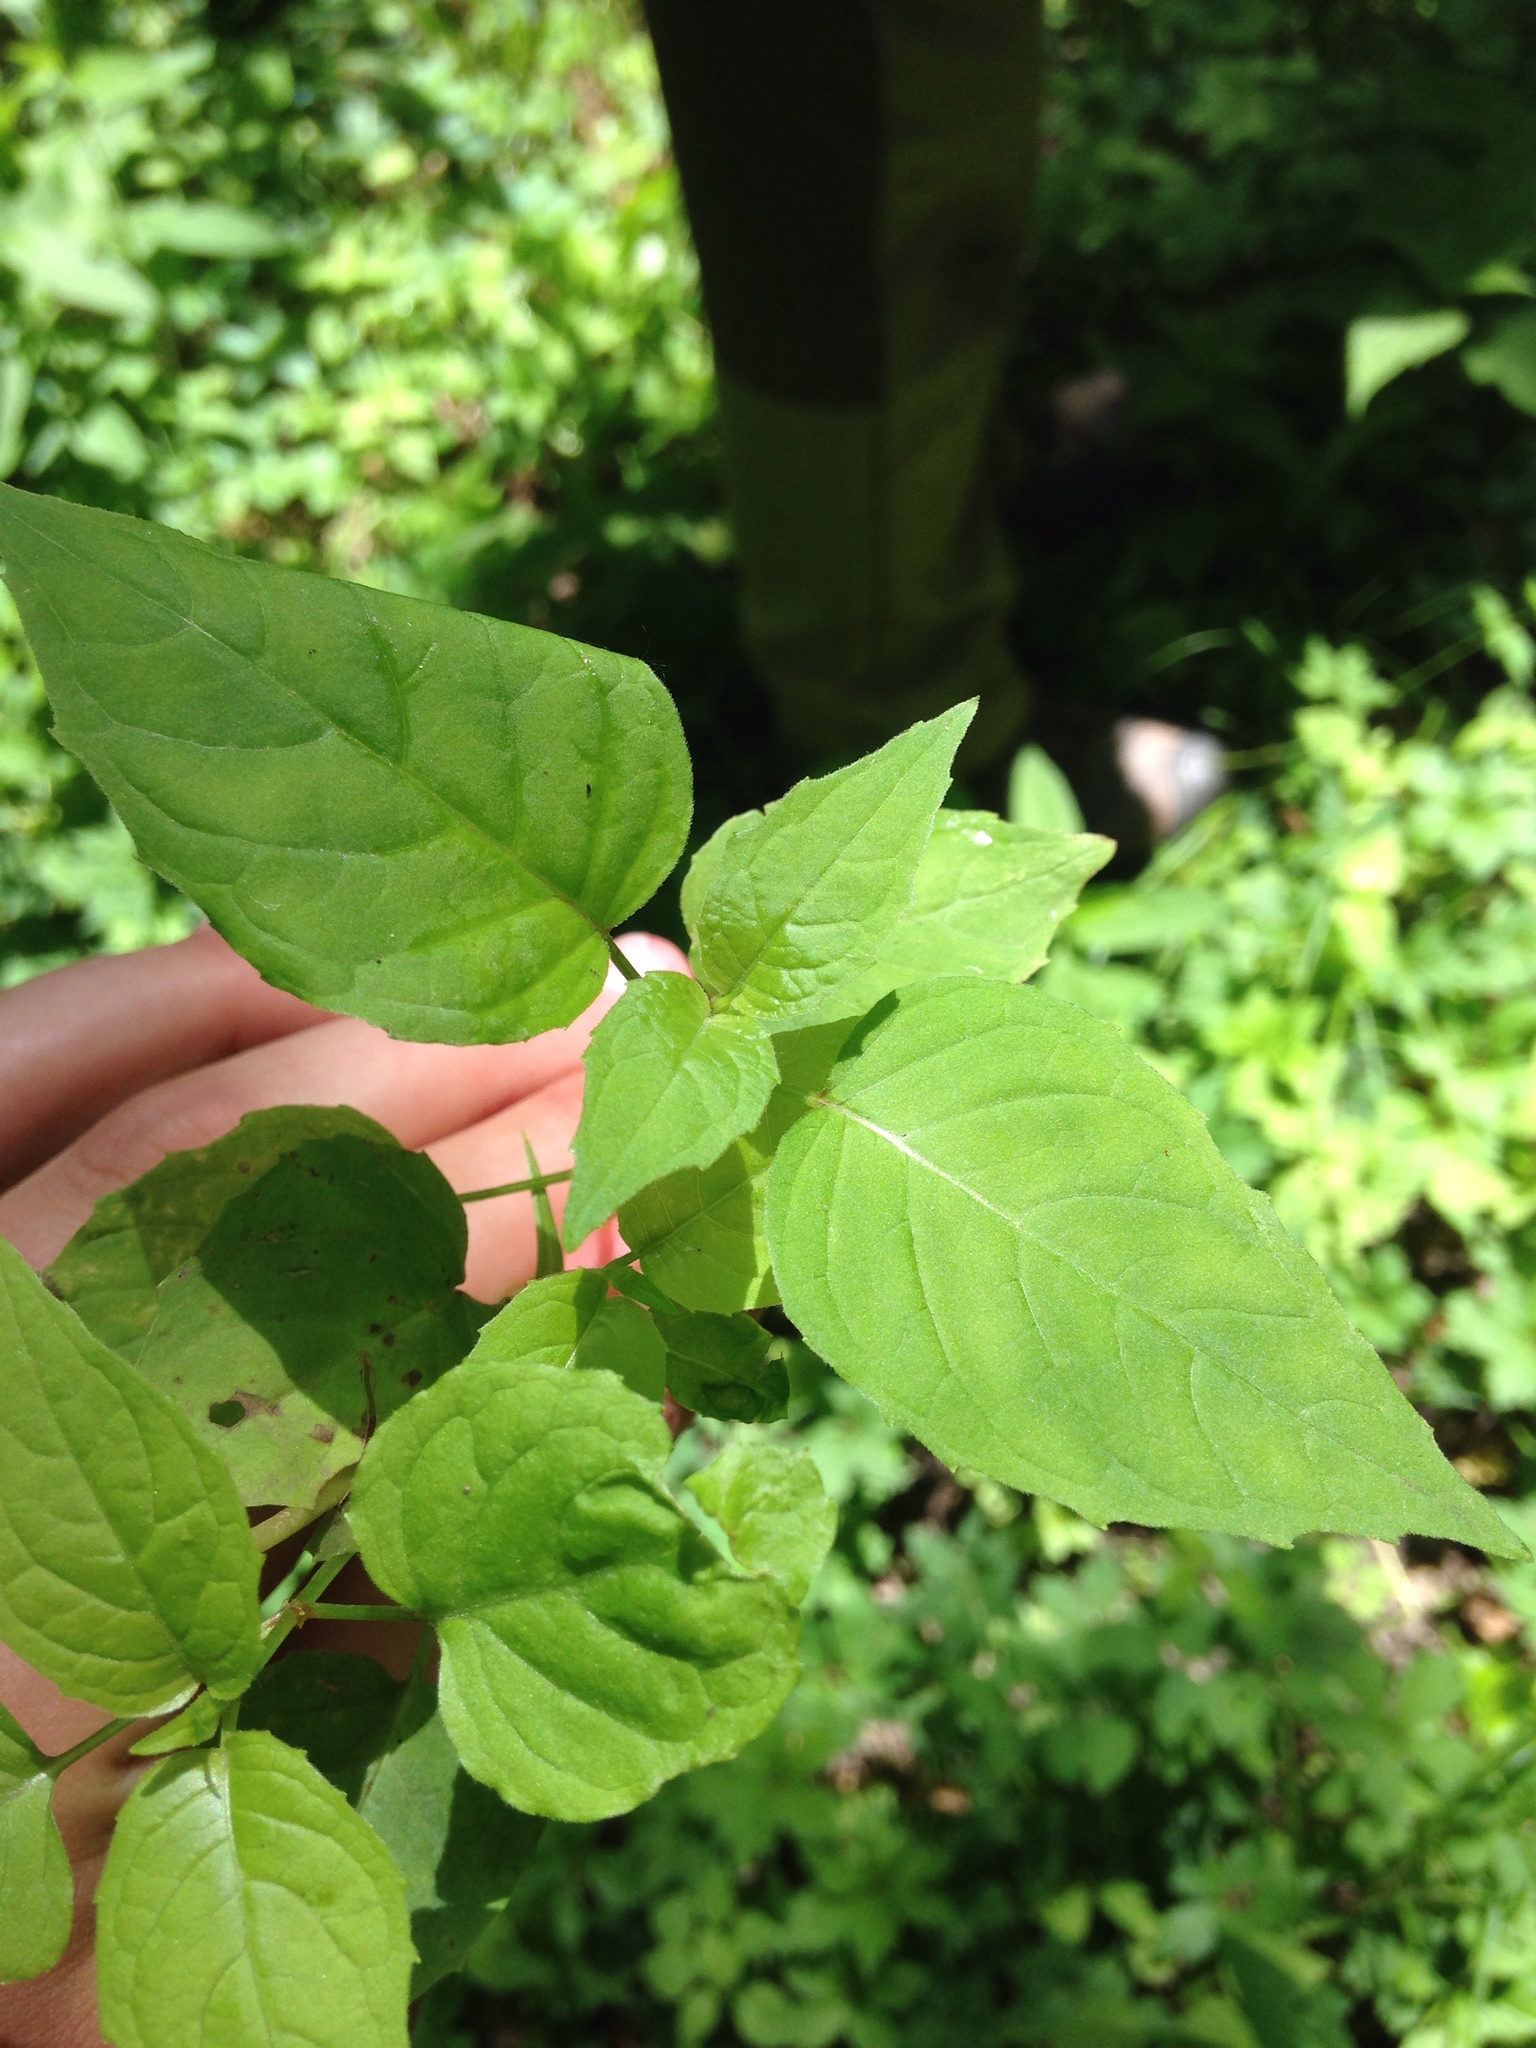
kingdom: Plantae
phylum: Tracheophyta
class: Magnoliopsida
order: Myrtales
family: Onagraceae
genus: Circaea
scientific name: Circaea canadensis
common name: Broad-leaved enchanter's nightshade
